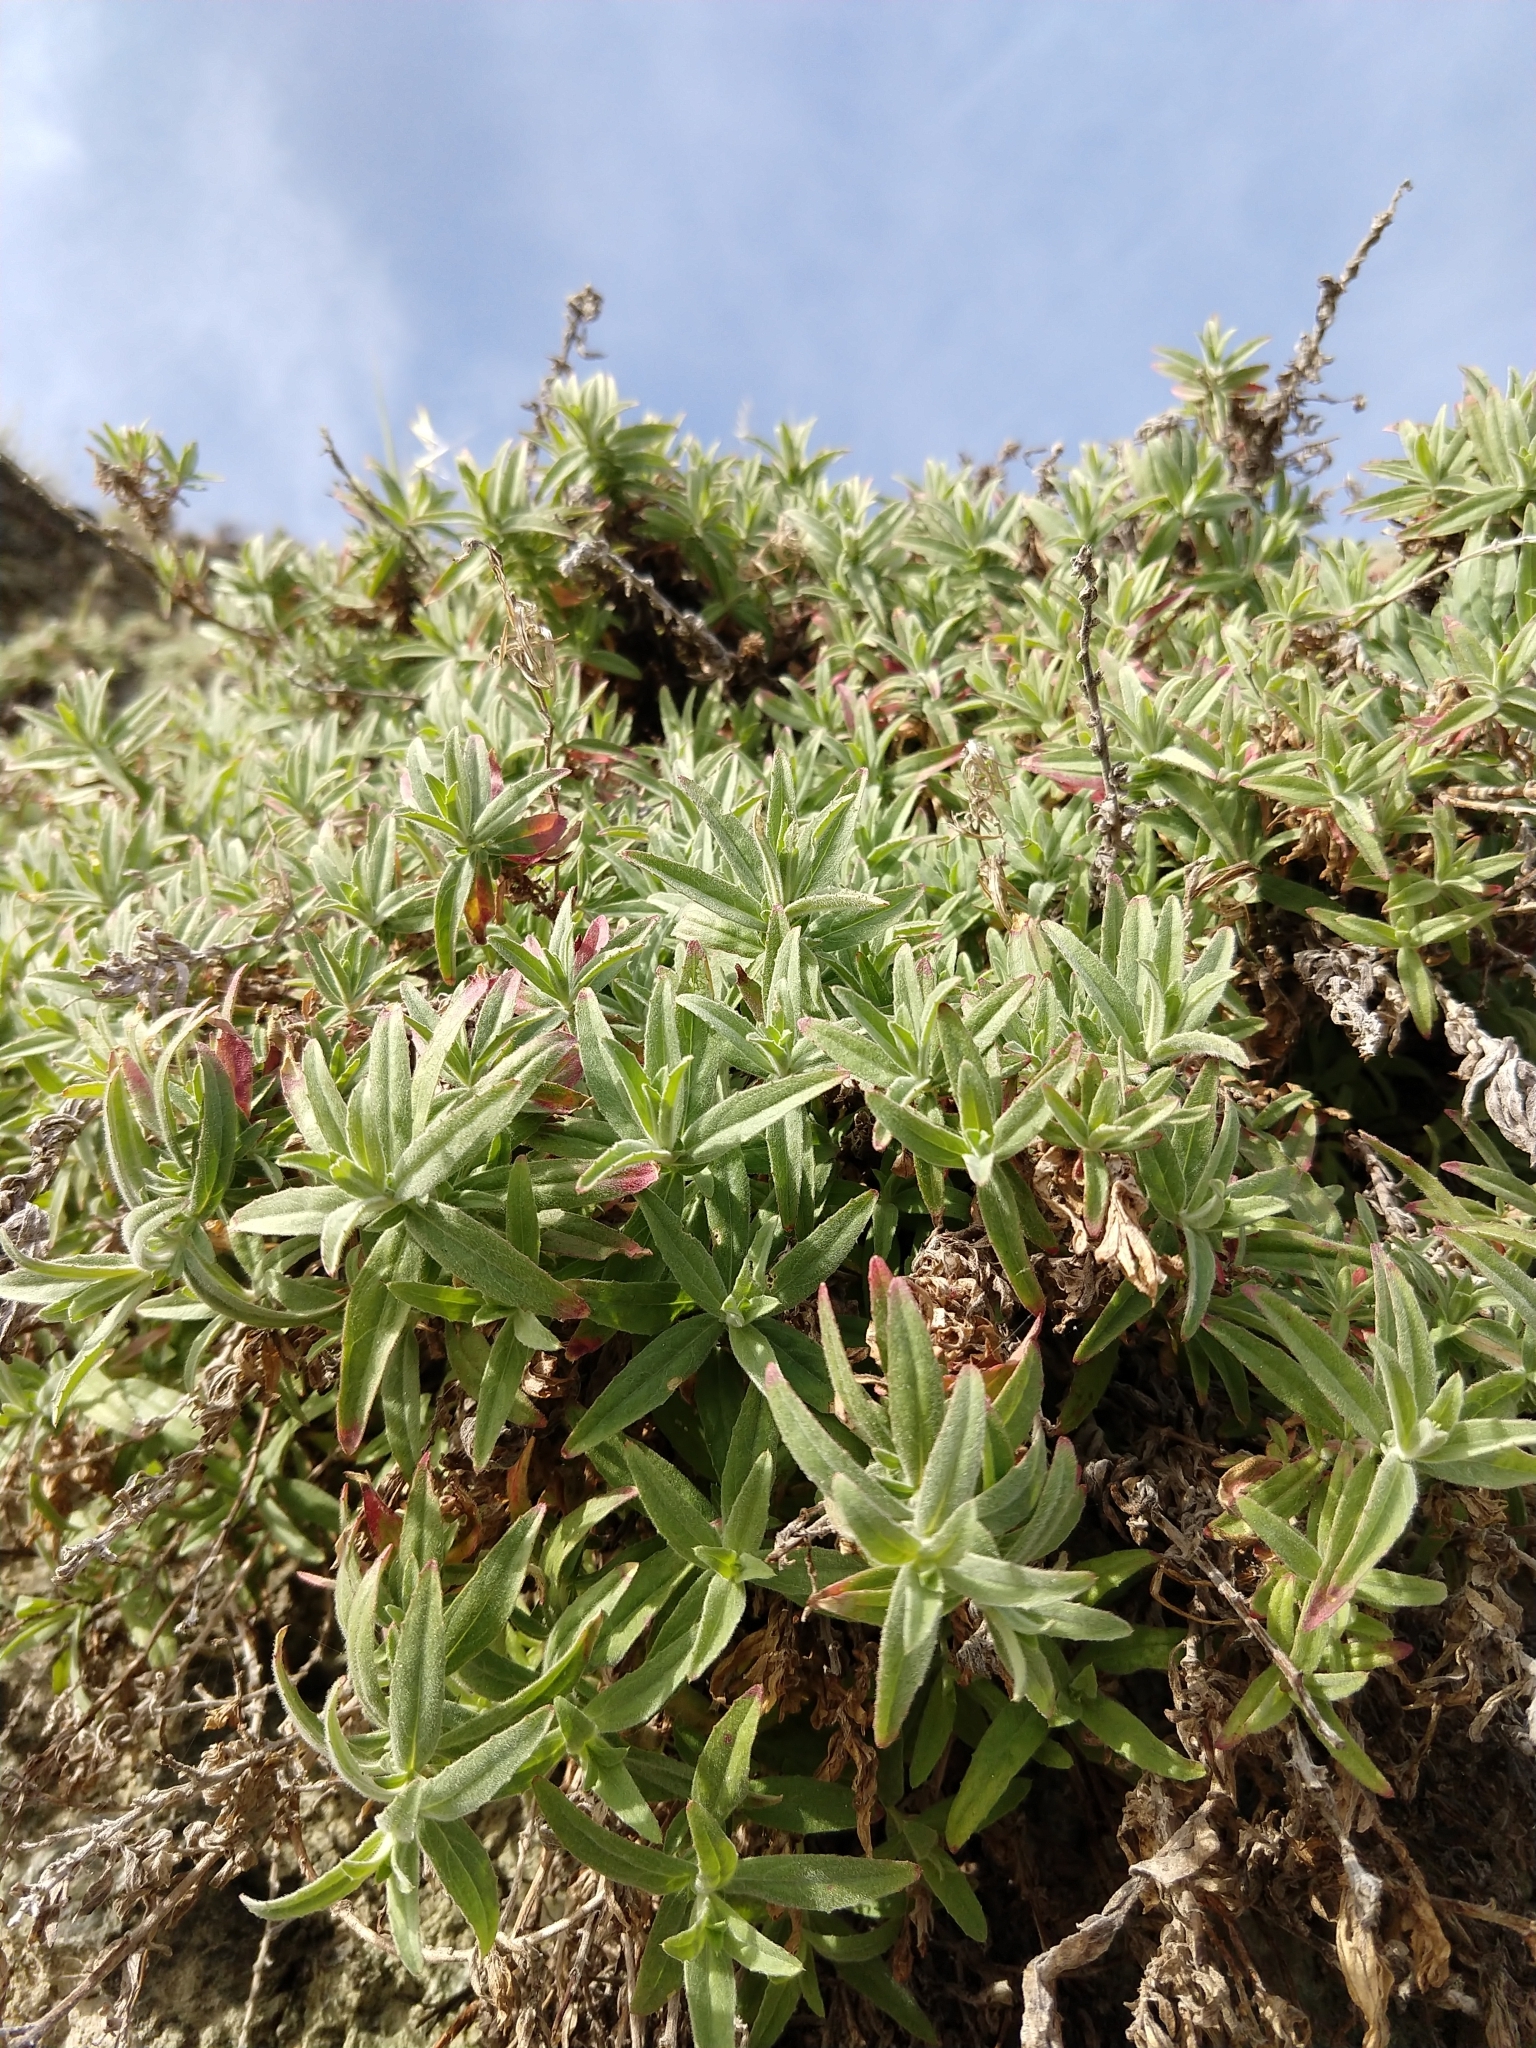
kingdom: Plantae
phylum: Tracheophyta
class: Magnoliopsida
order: Myrtales
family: Onagraceae
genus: Epilobium
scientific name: Epilobium canum
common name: California-fuchsia
